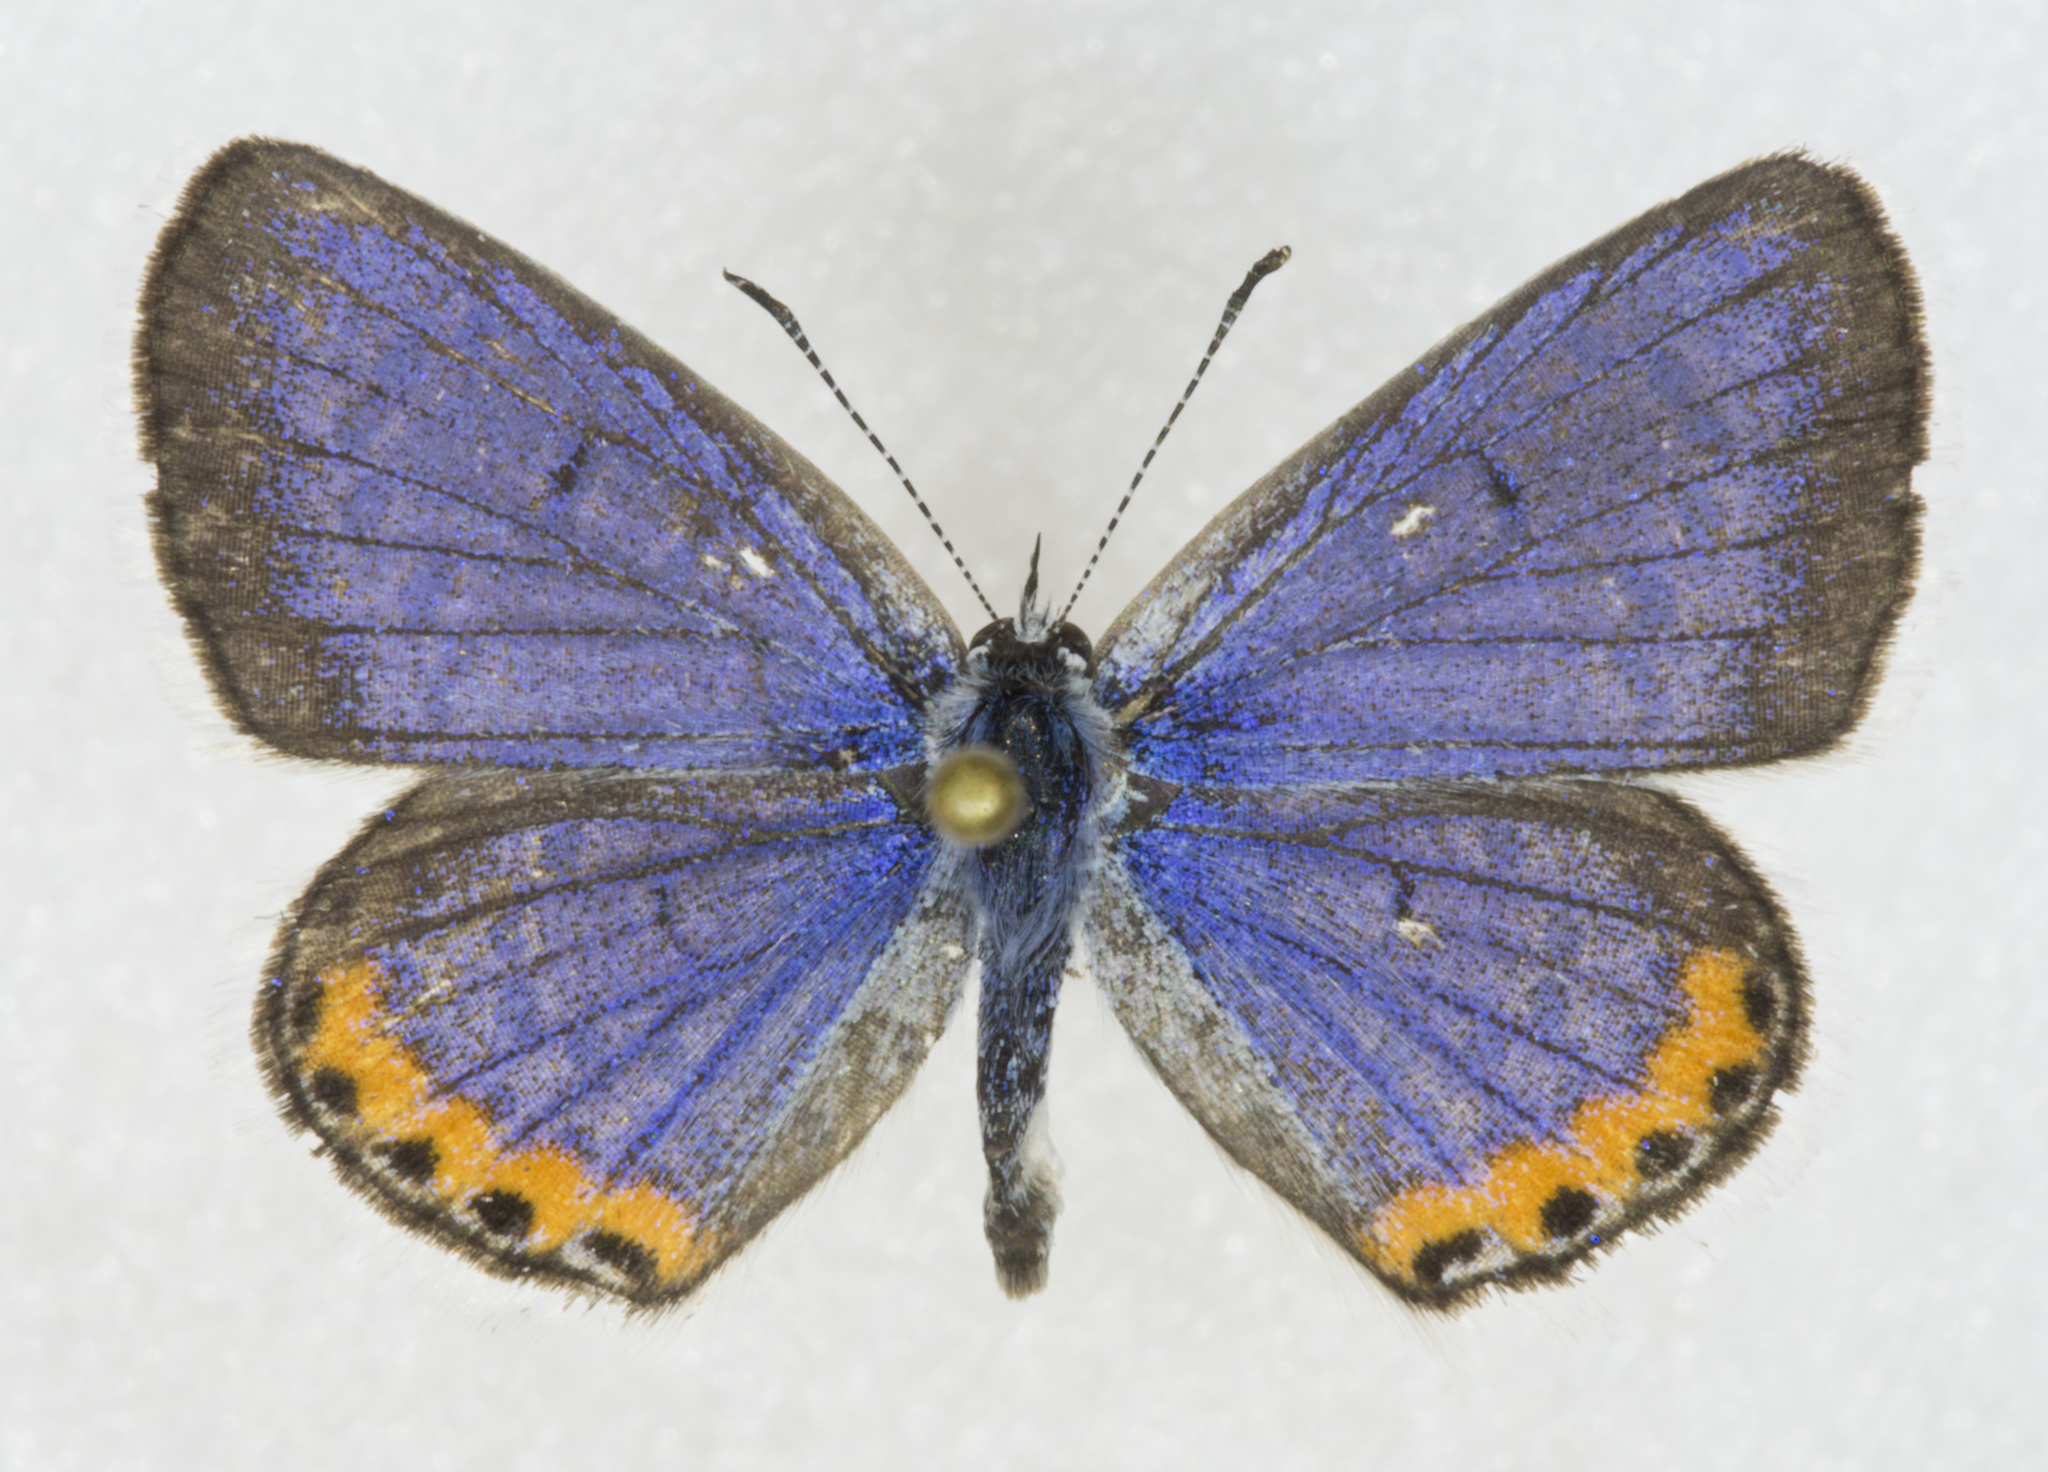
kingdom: Animalia
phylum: Arthropoda
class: Insecta
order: Lepidoptera
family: Lycaenidae
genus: Icaricia
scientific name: Icaricia lupini
